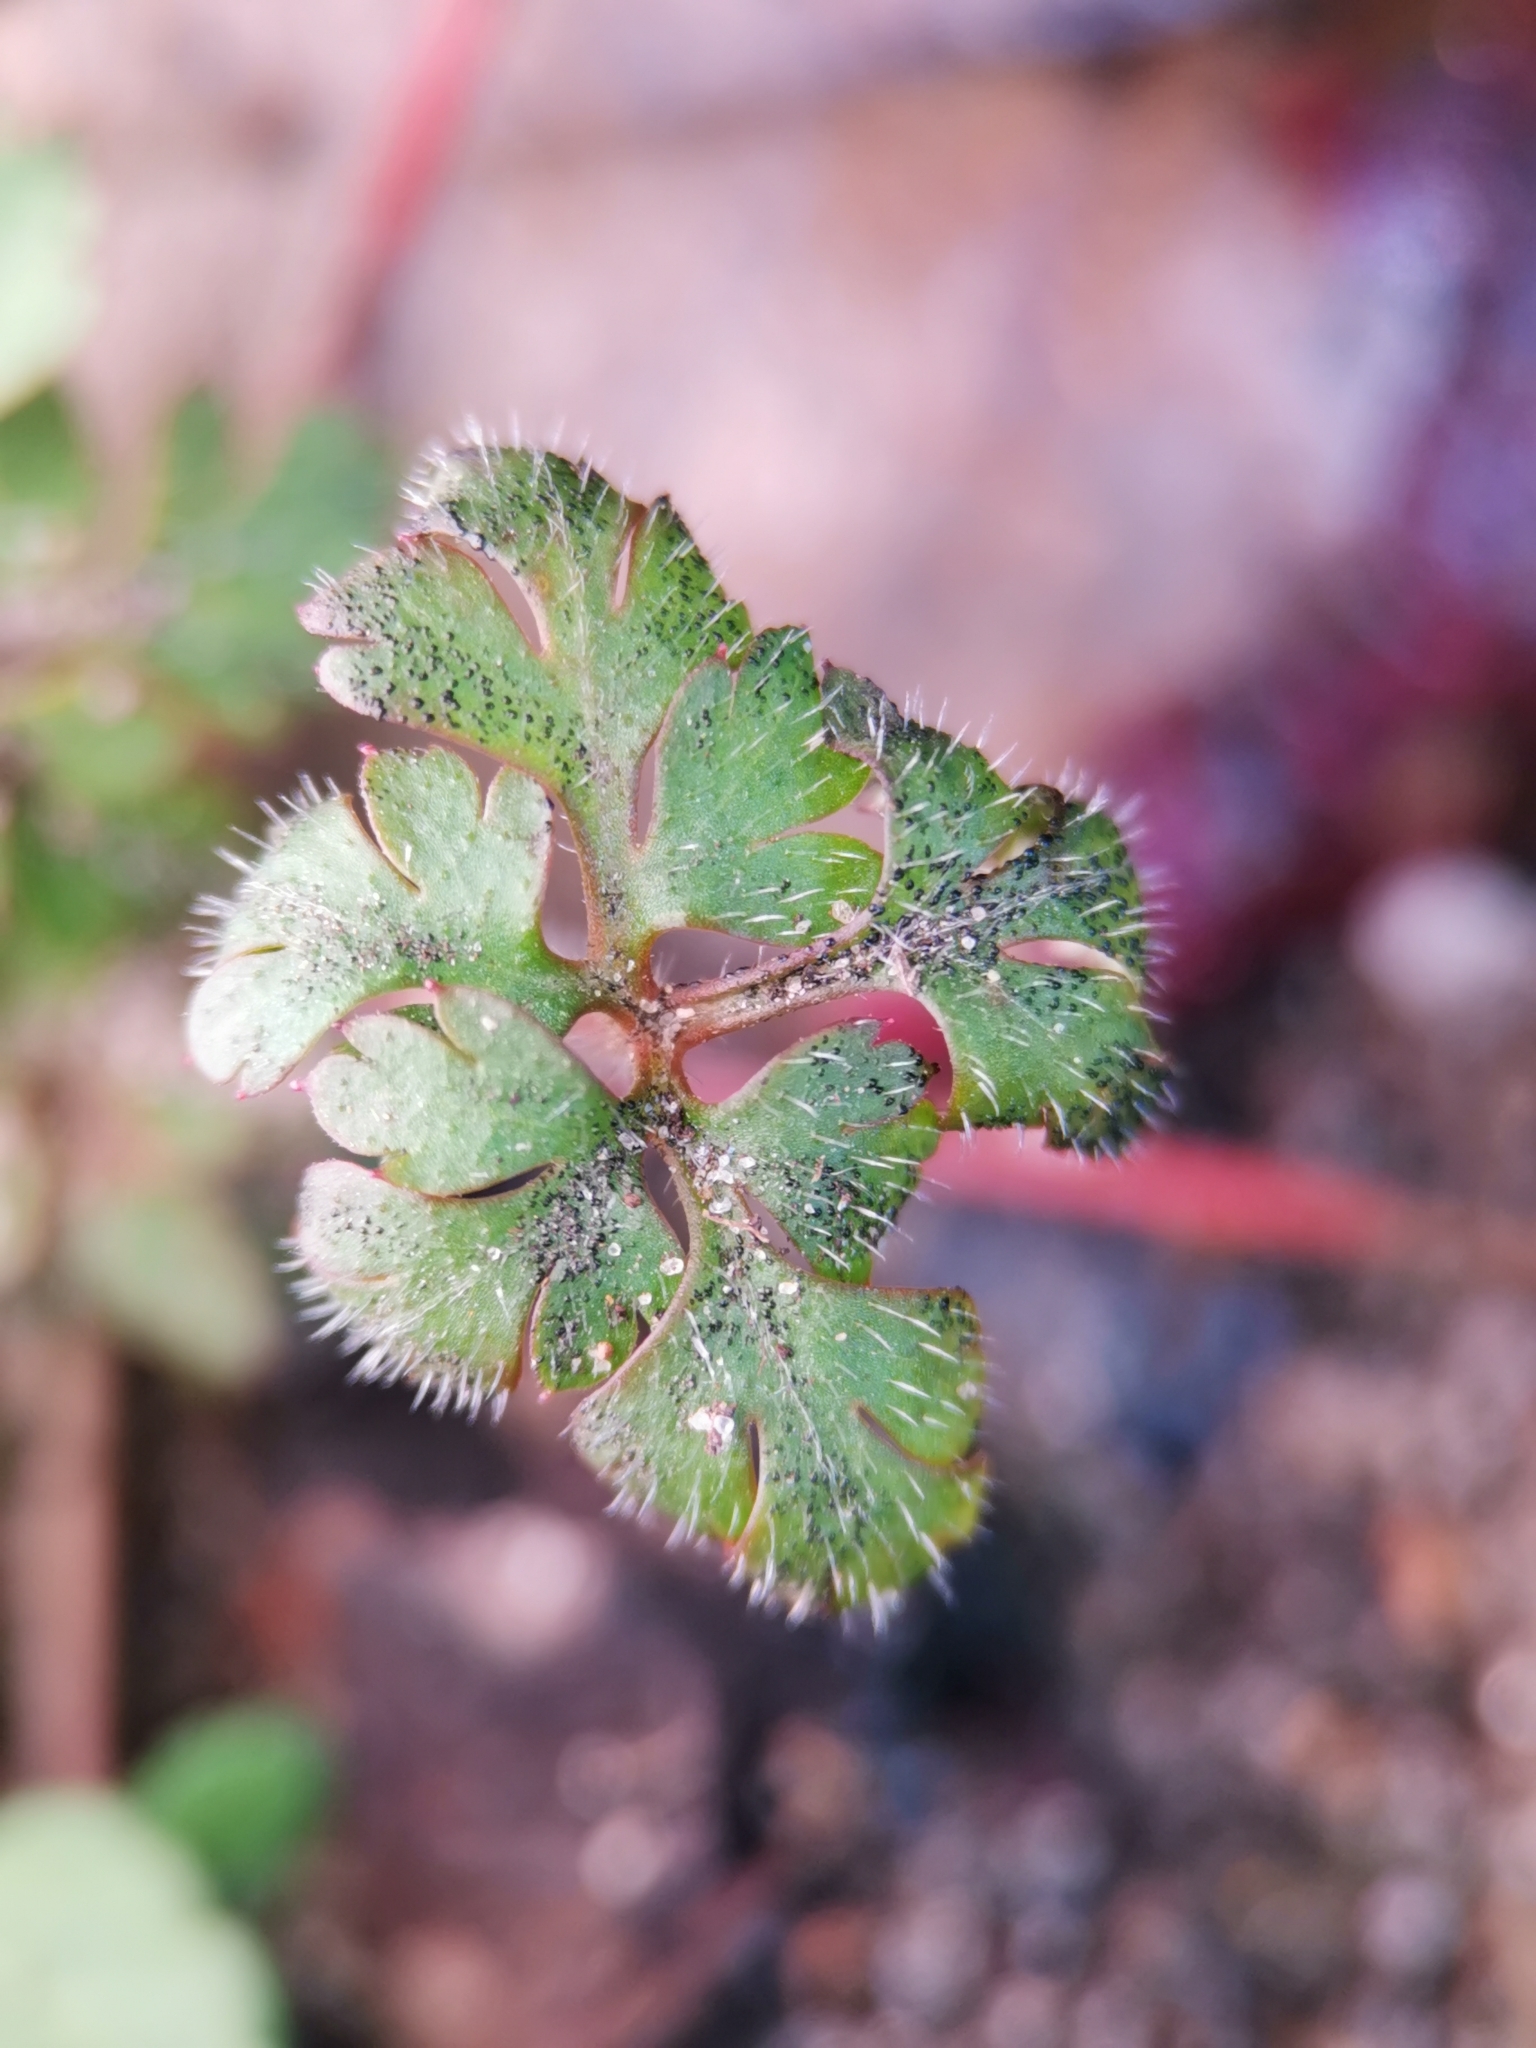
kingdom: Plantae
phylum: Tracheophyta
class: Magnoliopsida
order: Geraniales
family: Geraniaceae
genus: Geranium
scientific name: Geranium robertianum
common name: Herb-robert
